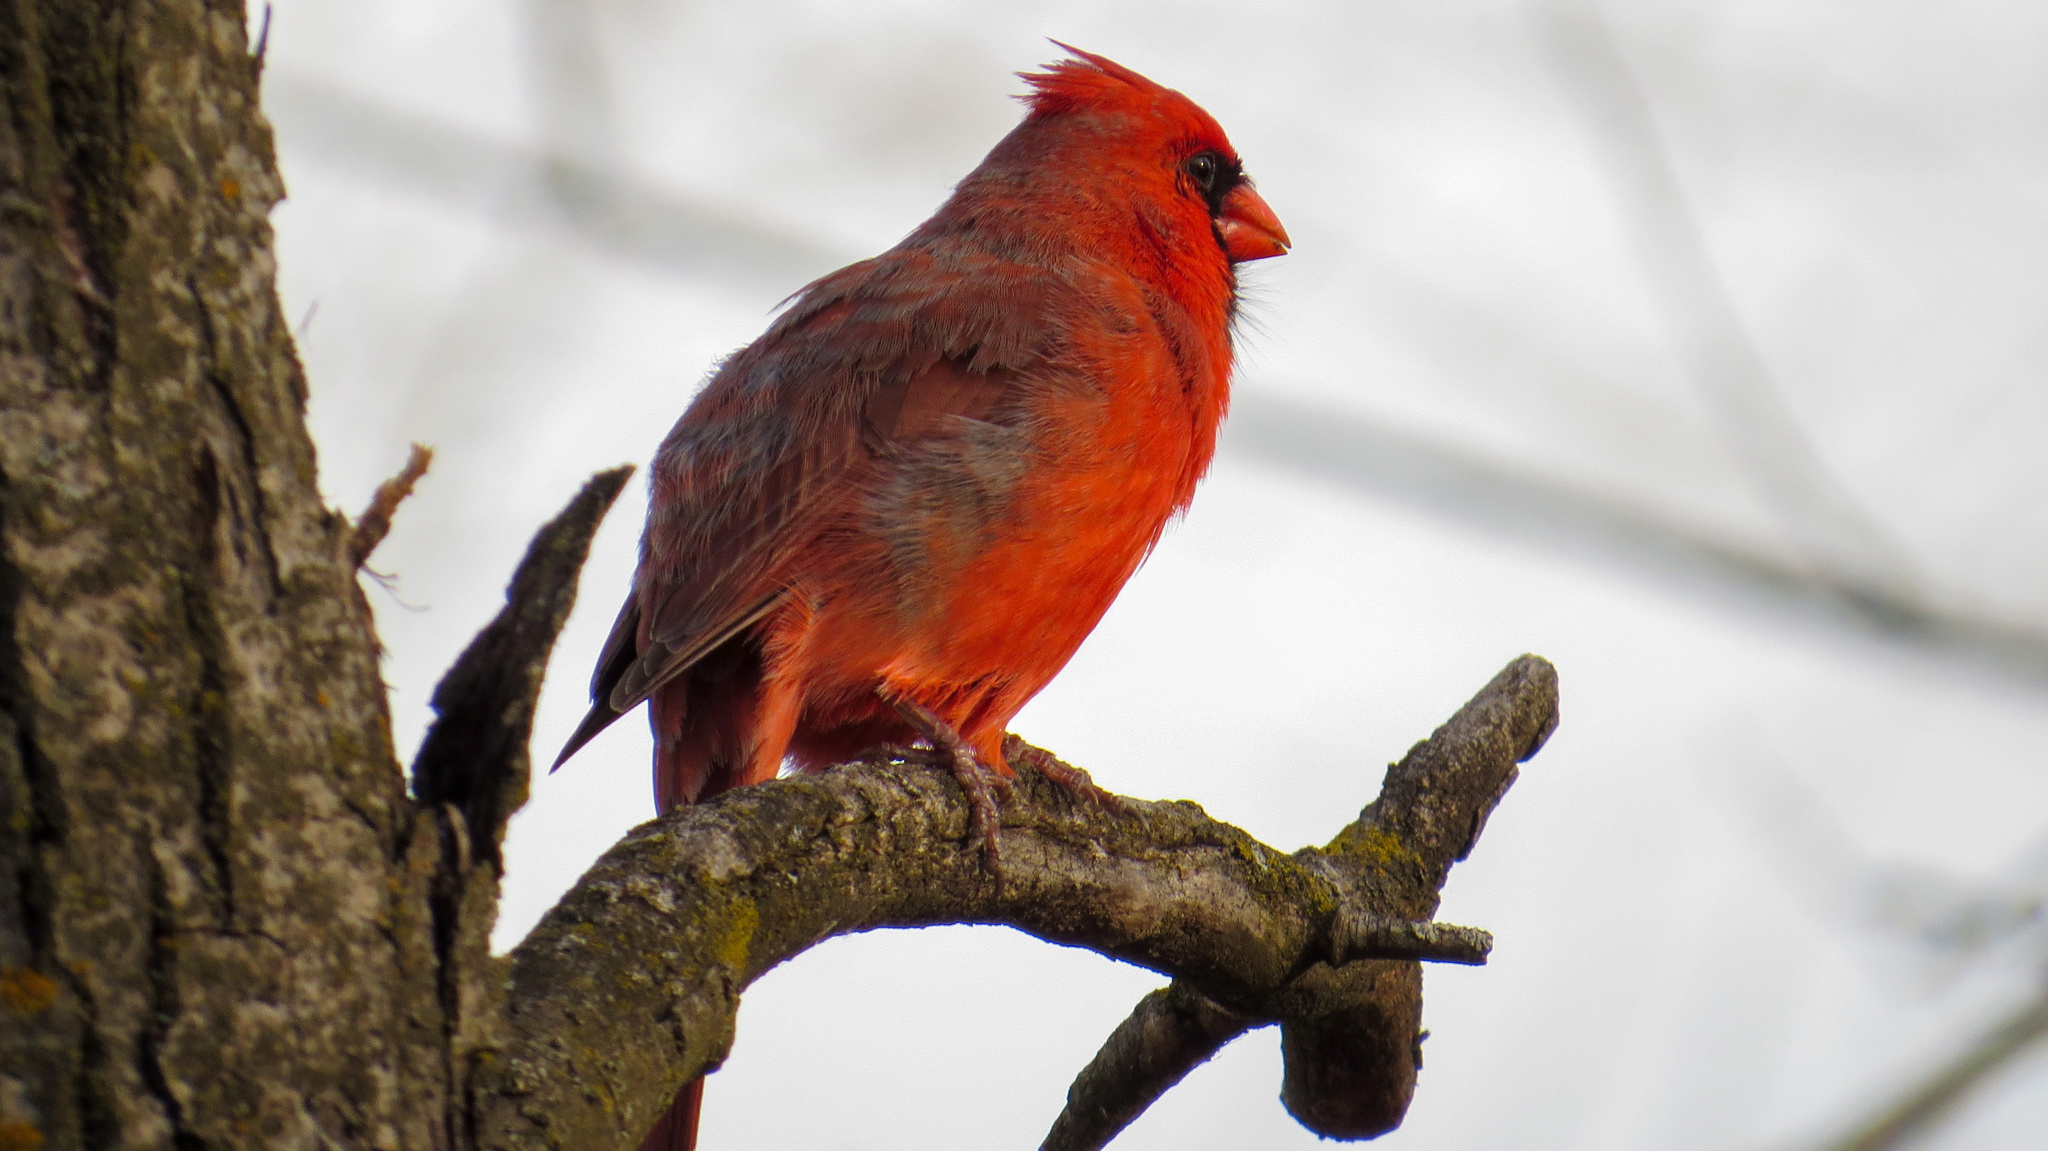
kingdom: Animalia
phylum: Chordata
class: Aves
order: Passeriformes
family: Cardinalidae
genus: Cardinalis
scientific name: Cardinalis cardinalis
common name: Northern cardinal
